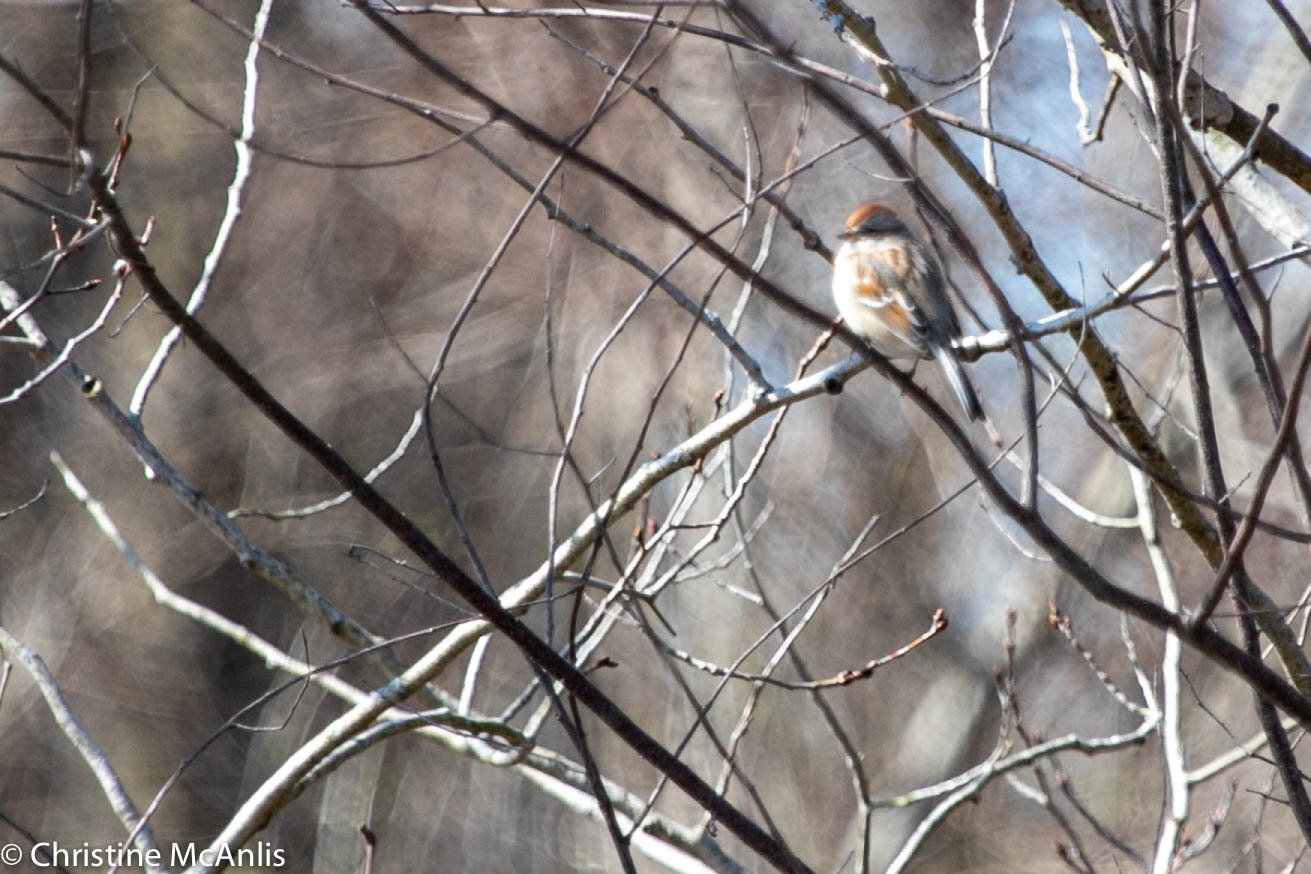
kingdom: Animalia
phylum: Chordata
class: Aves
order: Passeriformes
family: Passerellidae
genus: Spizelloides
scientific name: Spizelloides arborea
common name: American tree sparrow
